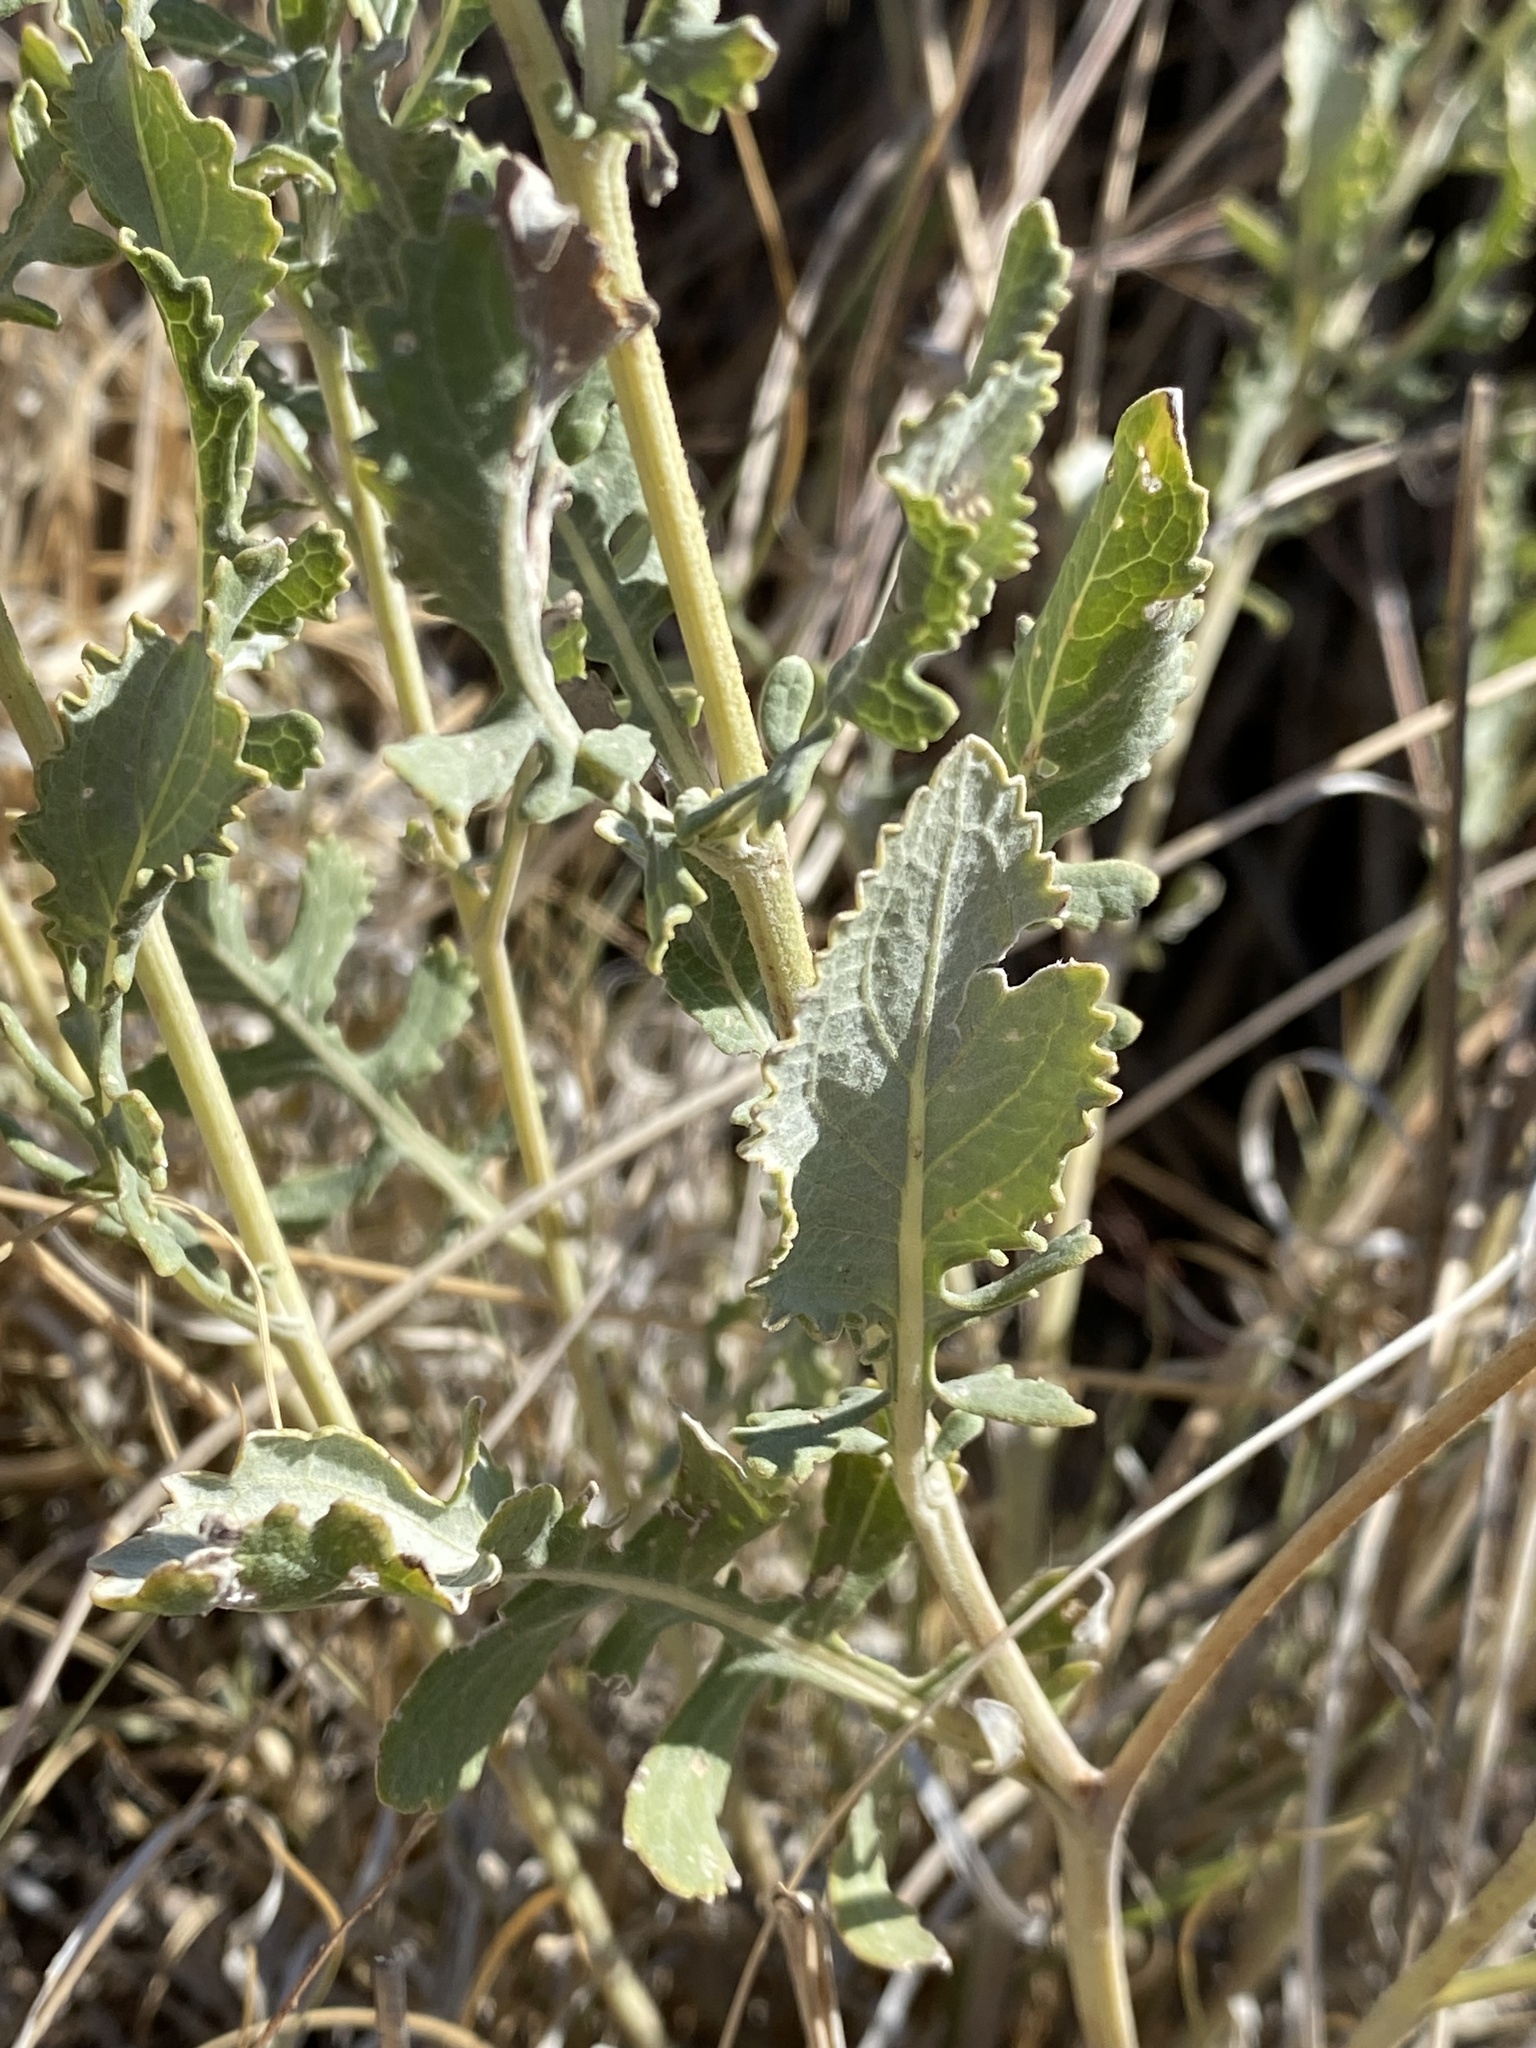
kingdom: Plantae
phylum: Tracheophyta
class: Magnoliopsida
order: Asterales
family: Asteraceae
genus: Berlandiera
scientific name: Berlandiera lyrata
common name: Chocolate-flower
